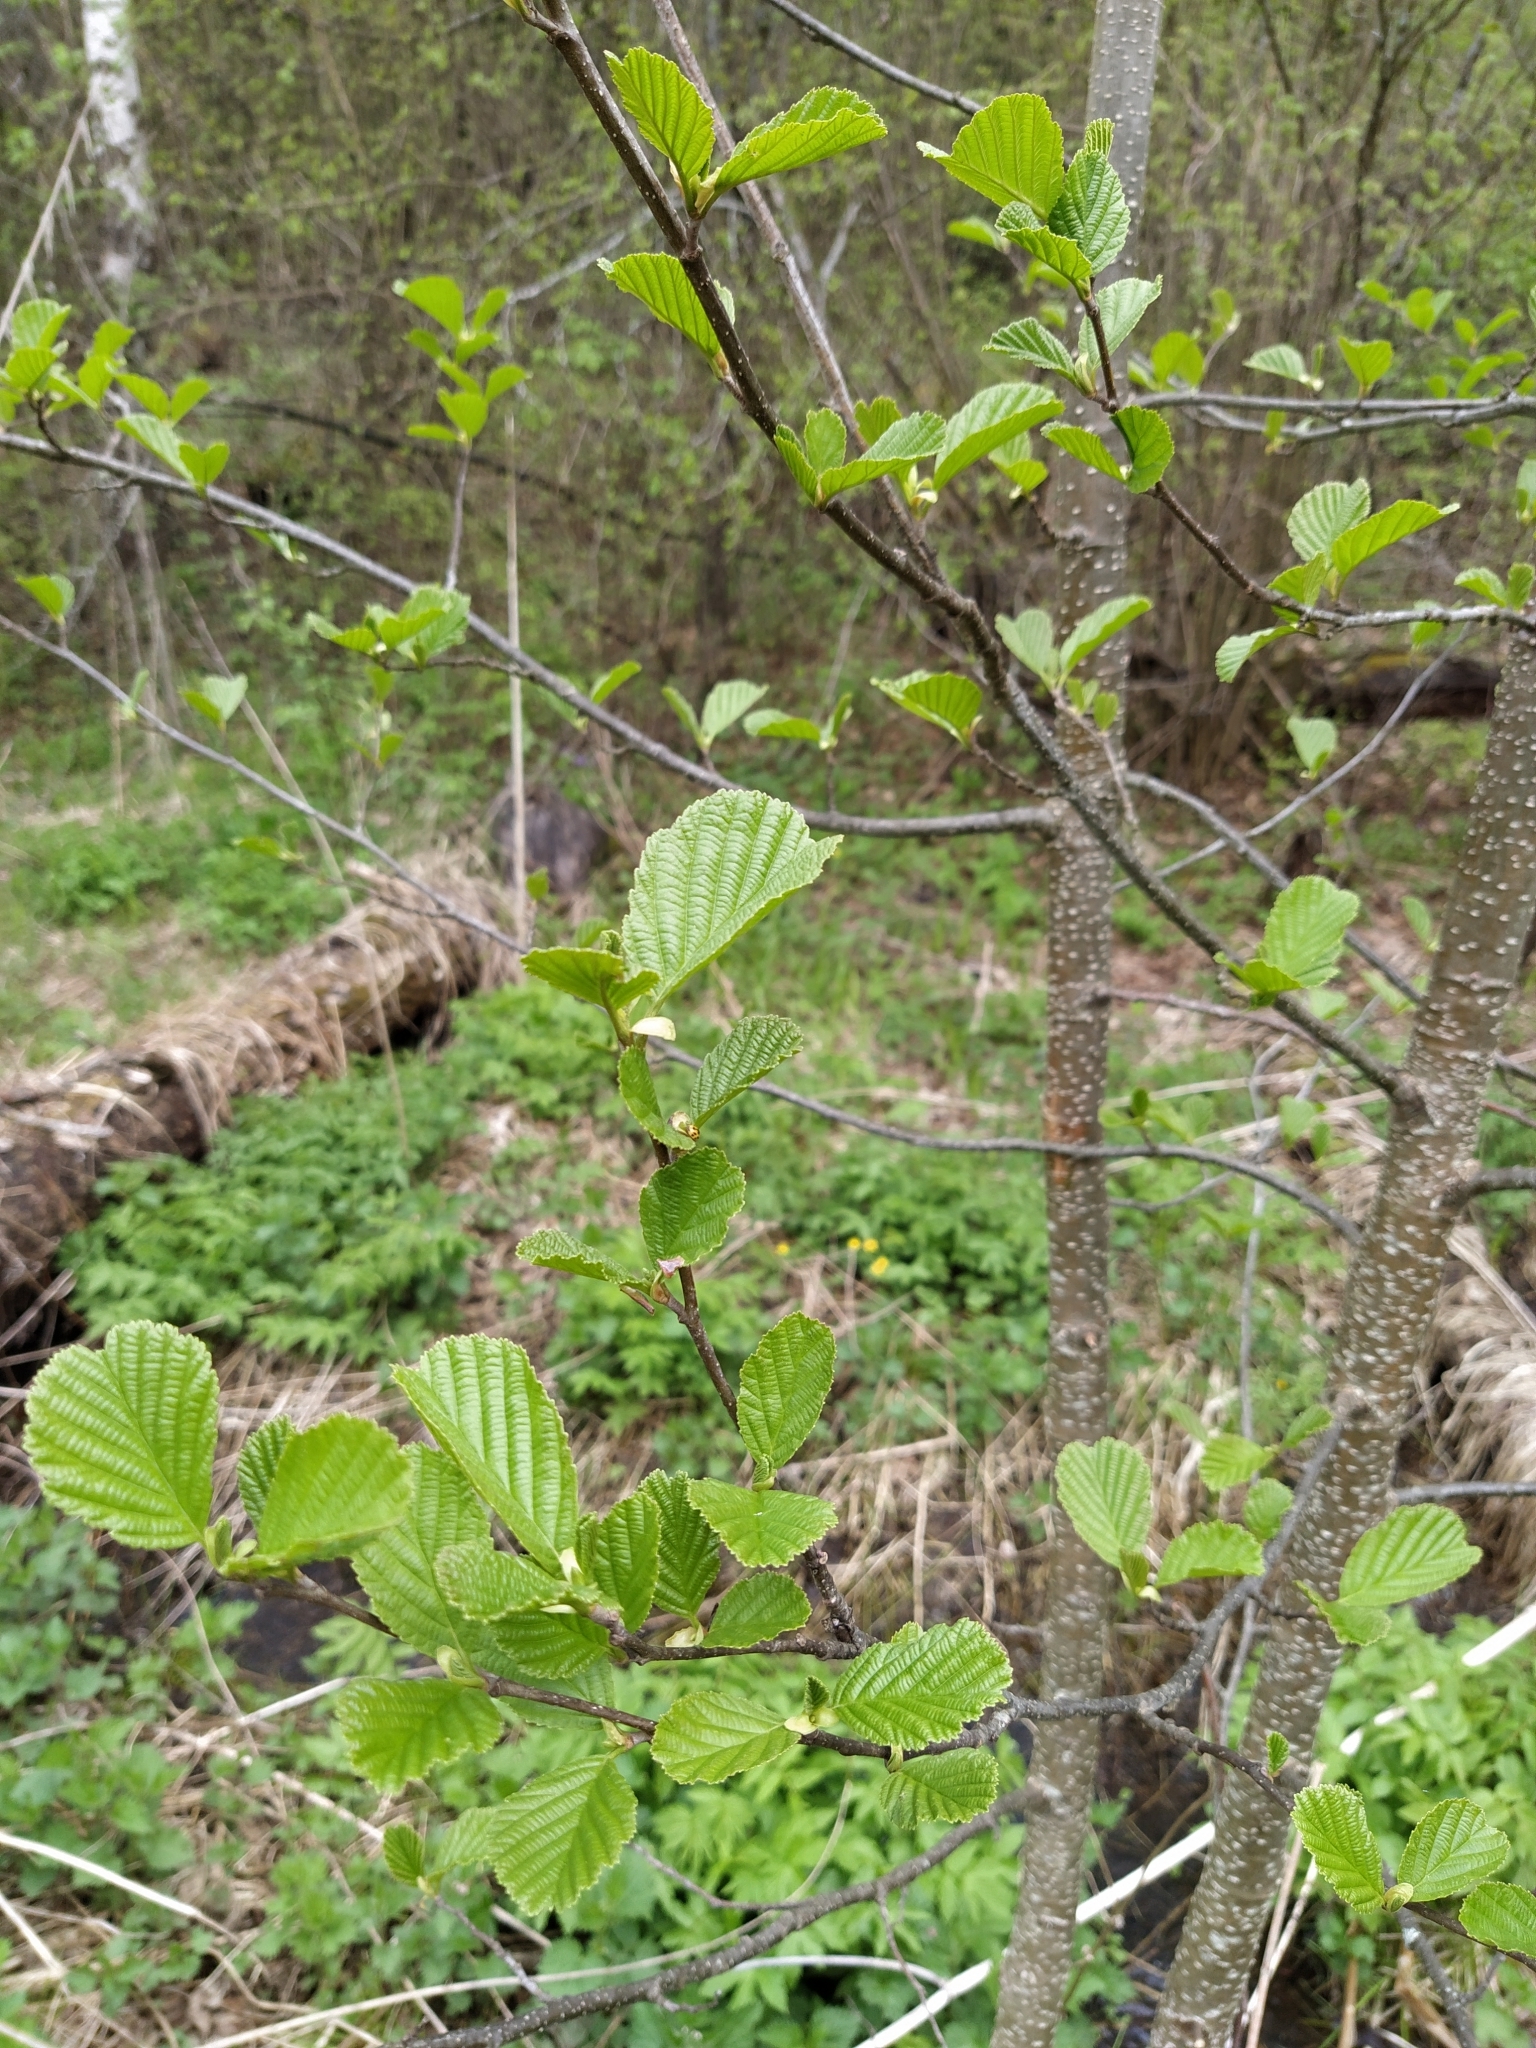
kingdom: Plantae
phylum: Tracheophyta
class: Magnoliopsida
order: Fagales
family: Betulaceae
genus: Alnus
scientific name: Alnus glutinosa
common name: Black alder
